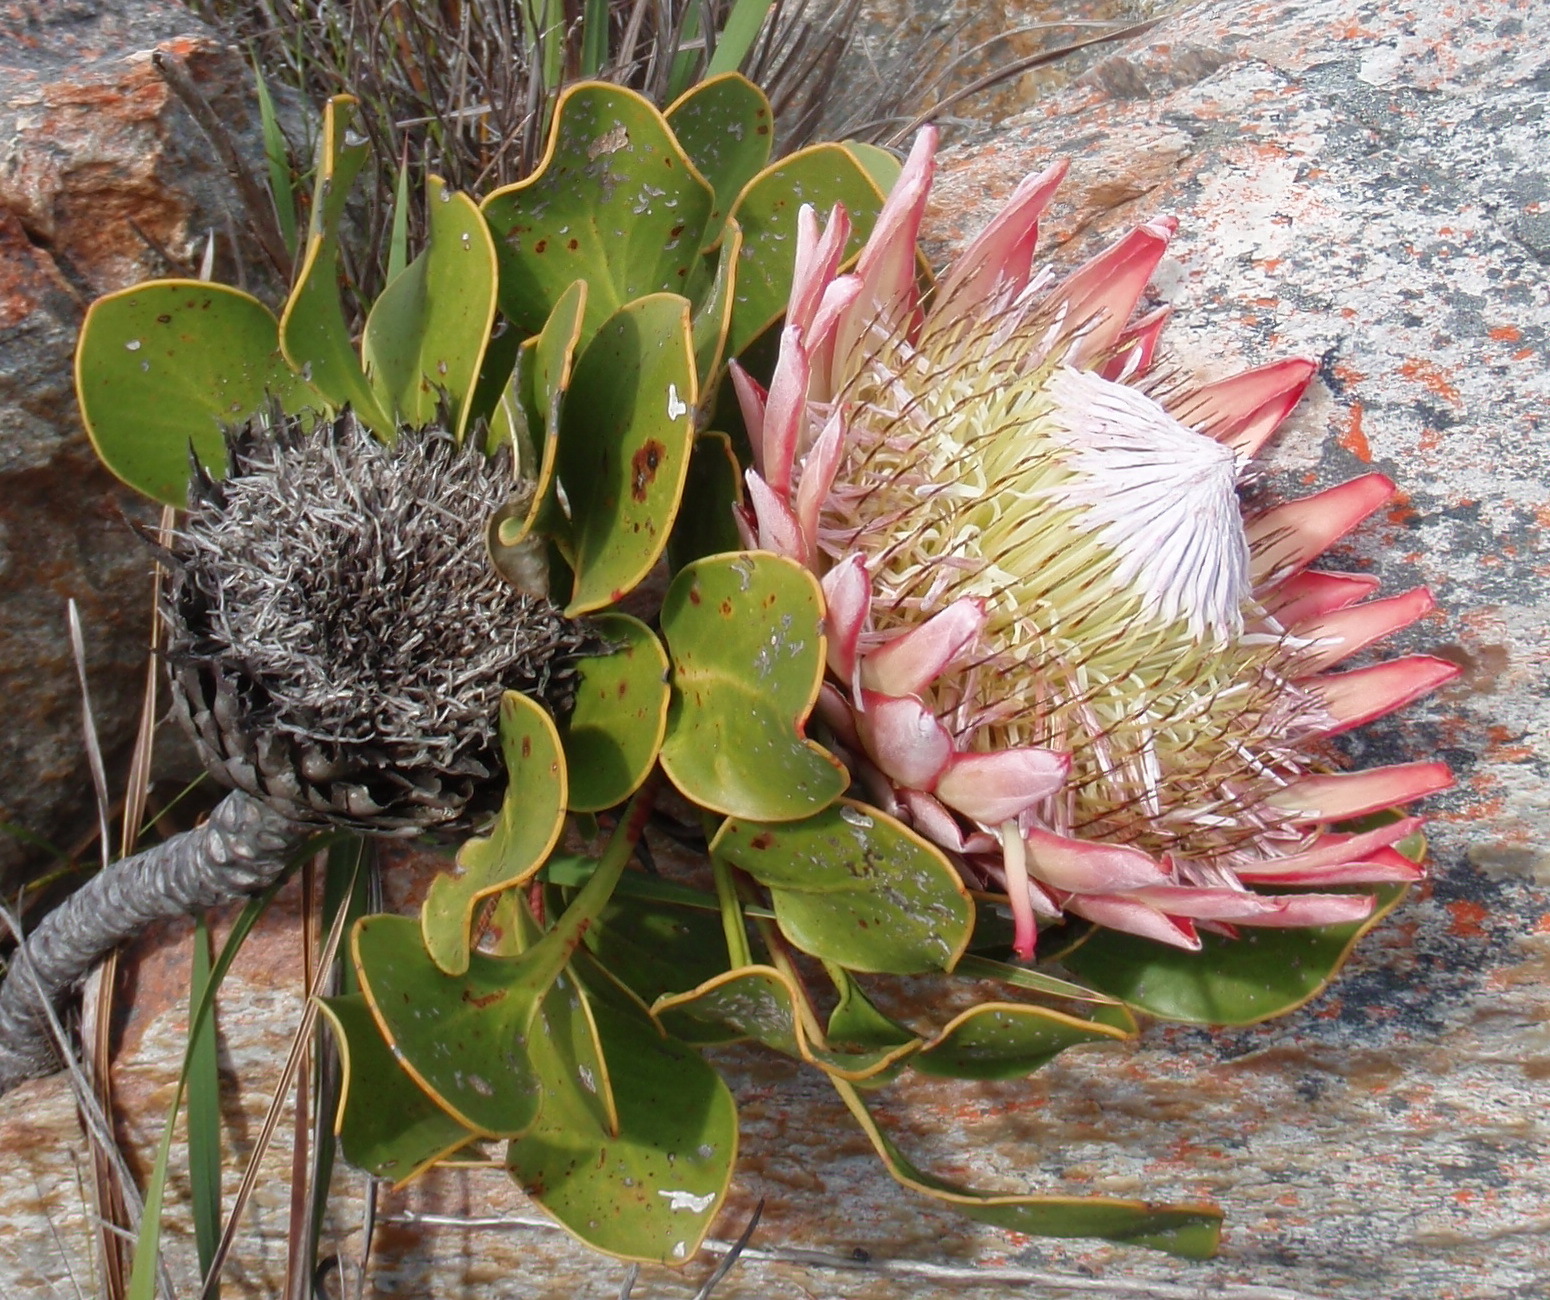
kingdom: Plantae
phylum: Tracheophyta
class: Magnoliopsida
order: Proteales
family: Proteaceae
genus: Protea
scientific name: Protea cynaroides
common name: King protea
